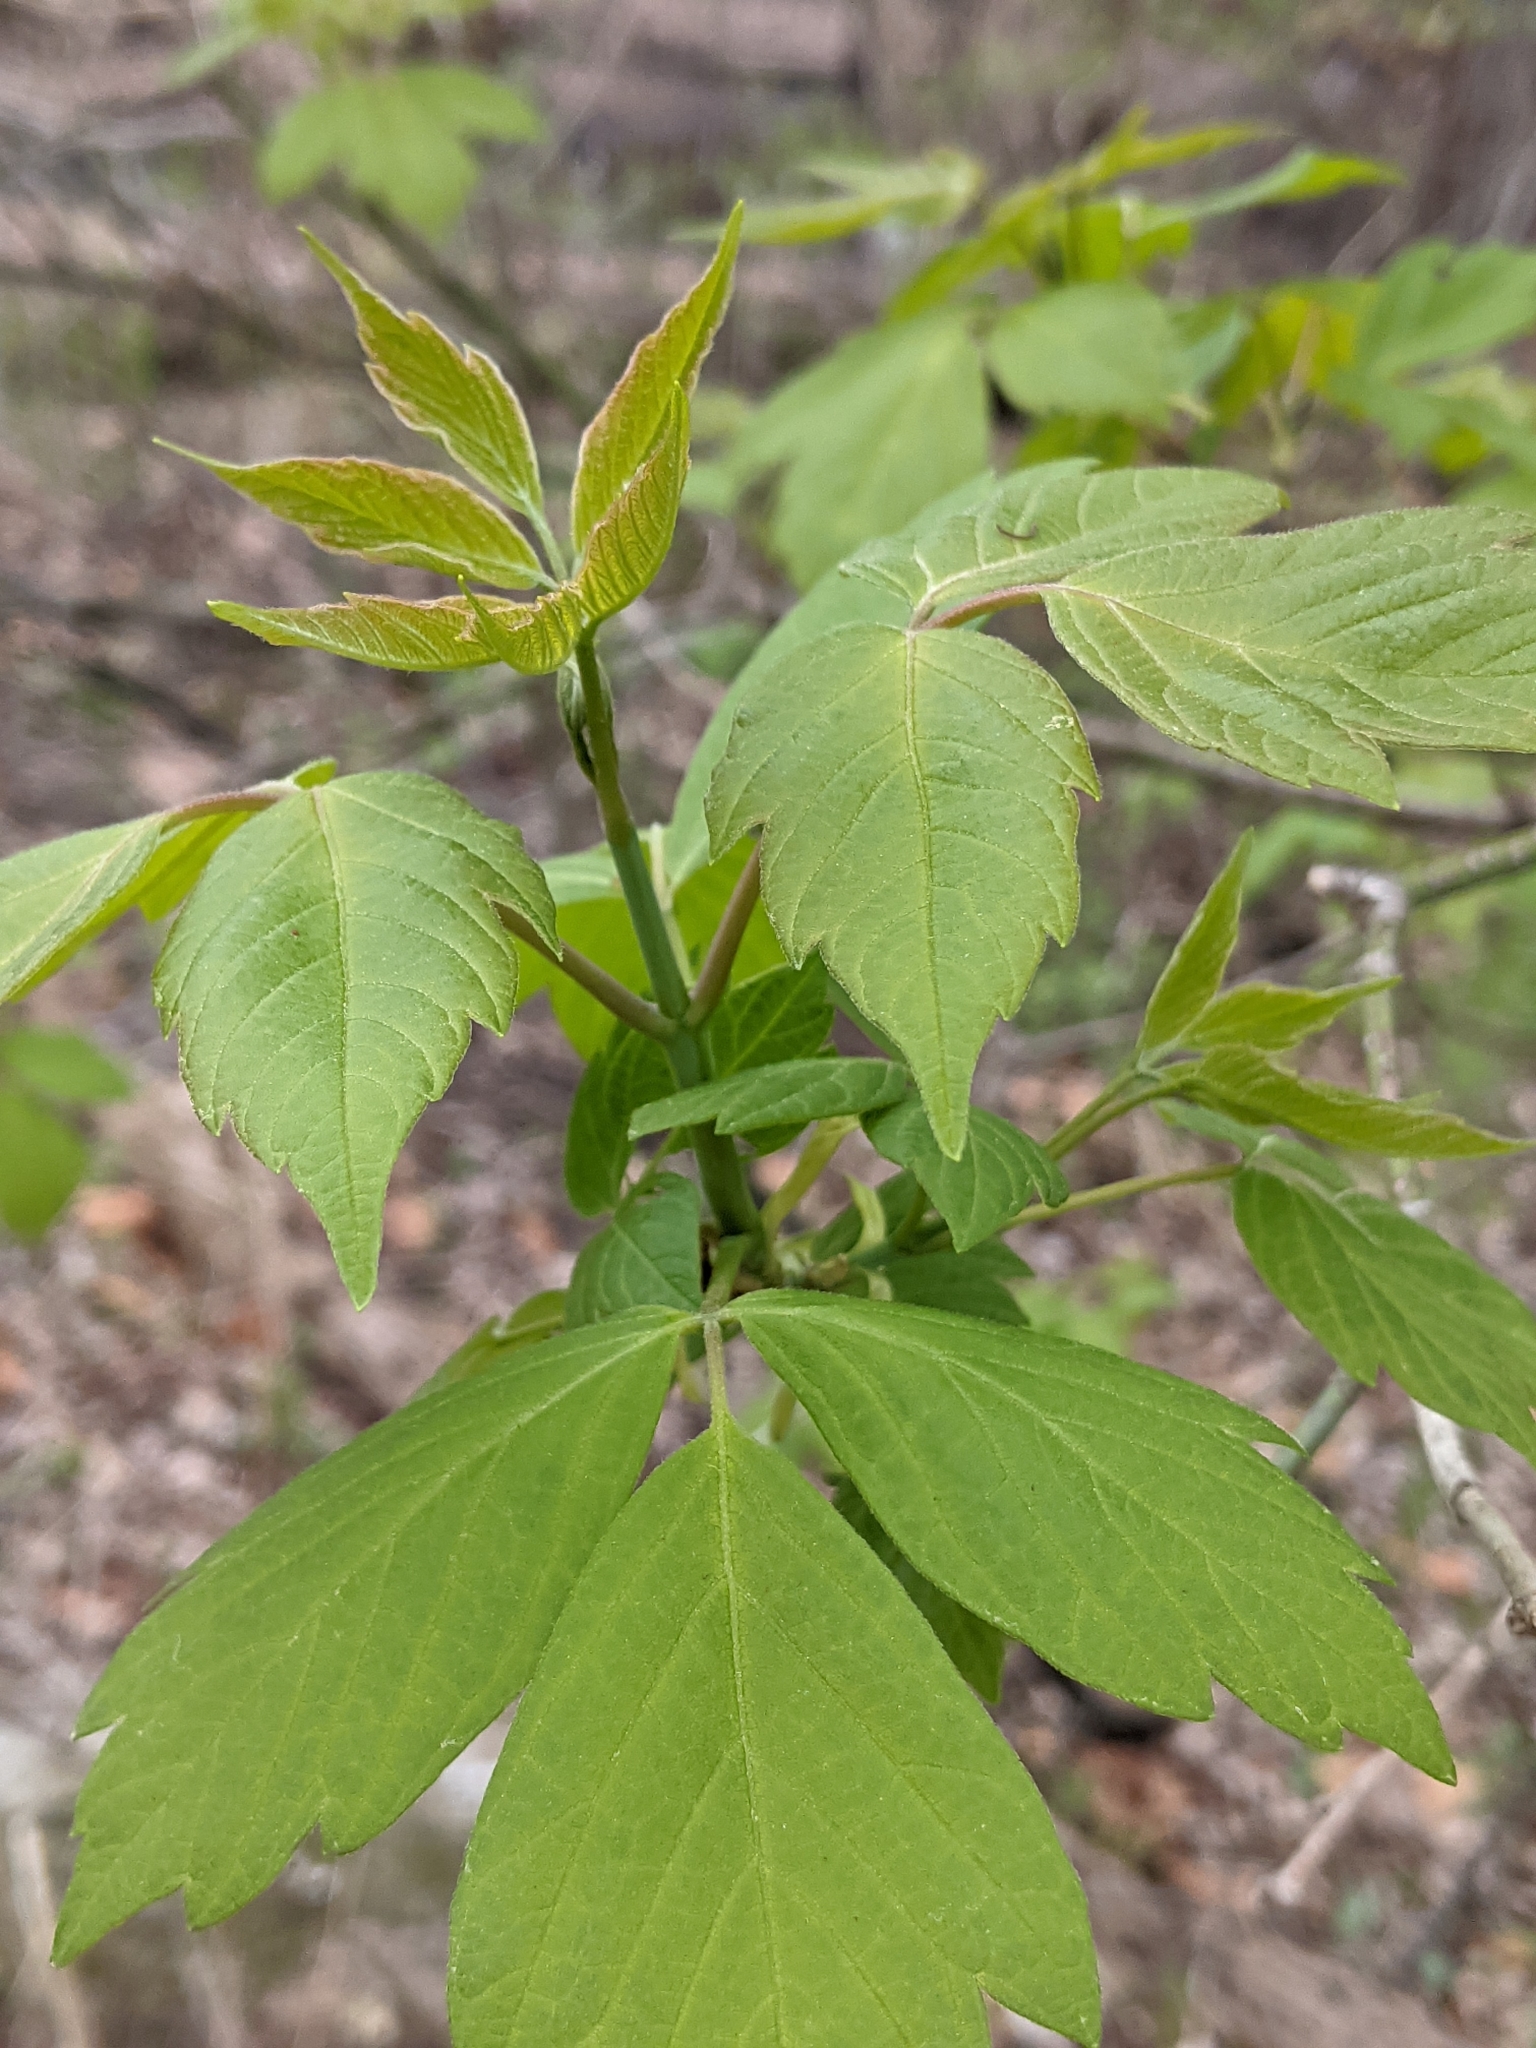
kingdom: Plantae
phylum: Tracheophyta
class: Magnoliopsida
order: Sapindales
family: Sapindaceae
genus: Acer
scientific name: Acer negundo
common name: Ashleaf maple
